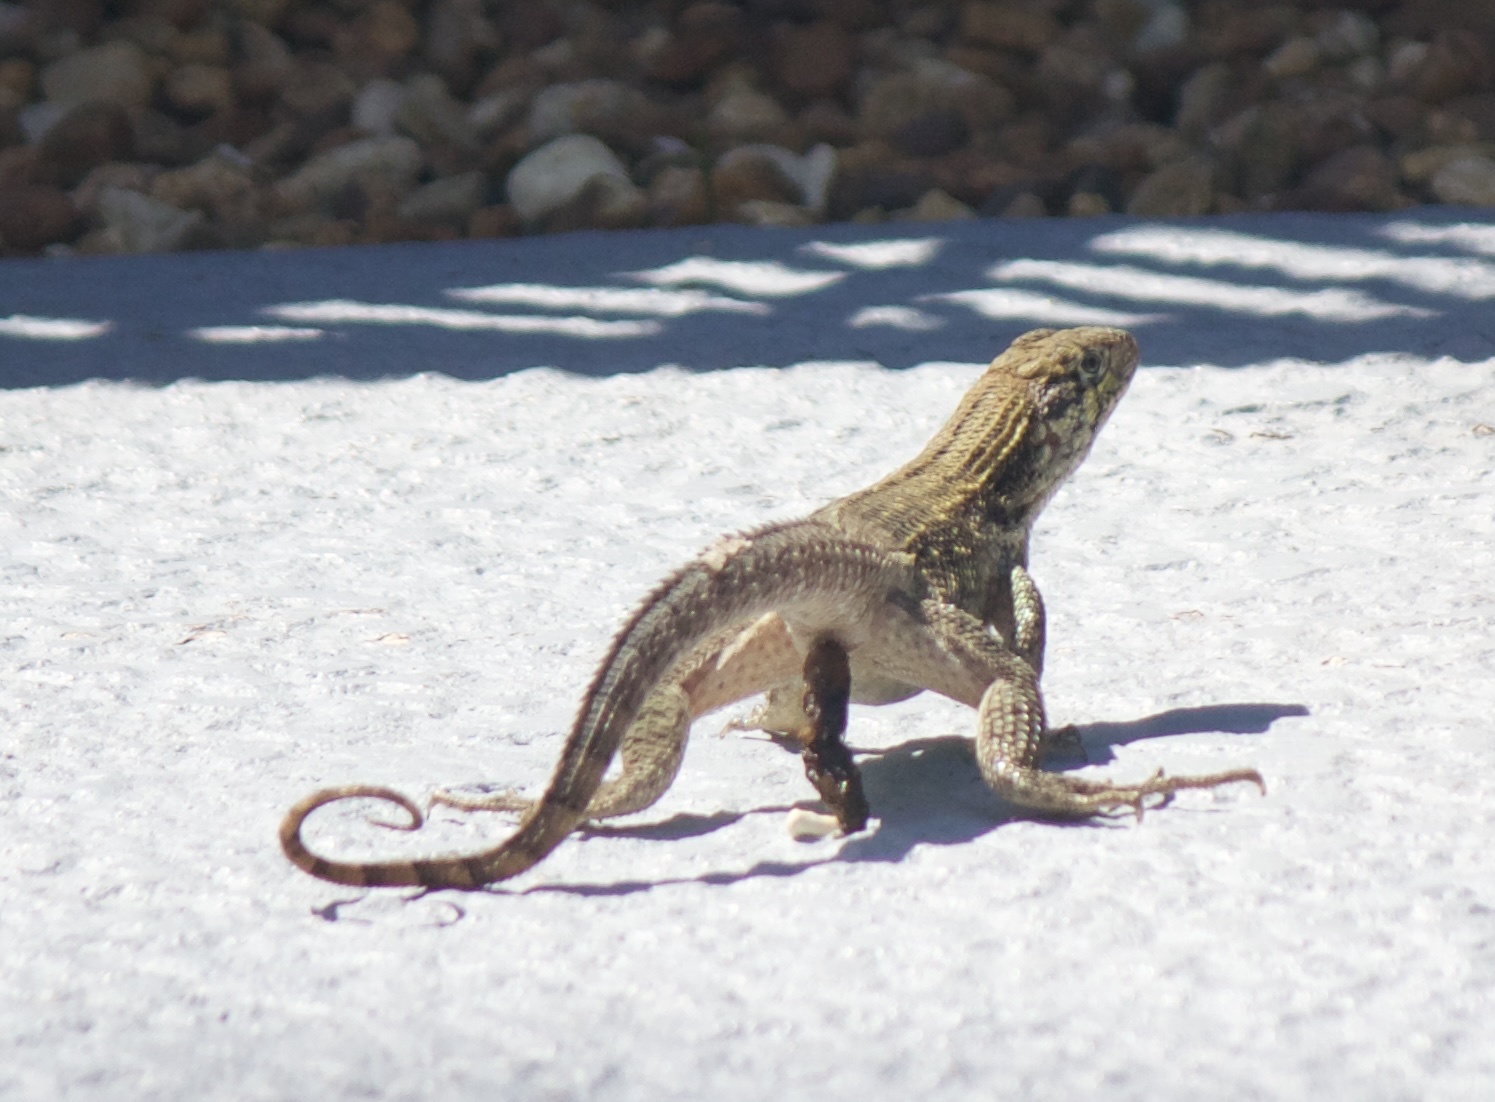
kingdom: Animalia
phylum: Chordata
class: Squamata
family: Leiocephalidae
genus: Leiocephalus
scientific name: Leiocephalus carinatus
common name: Northern curly-tailed lizard
